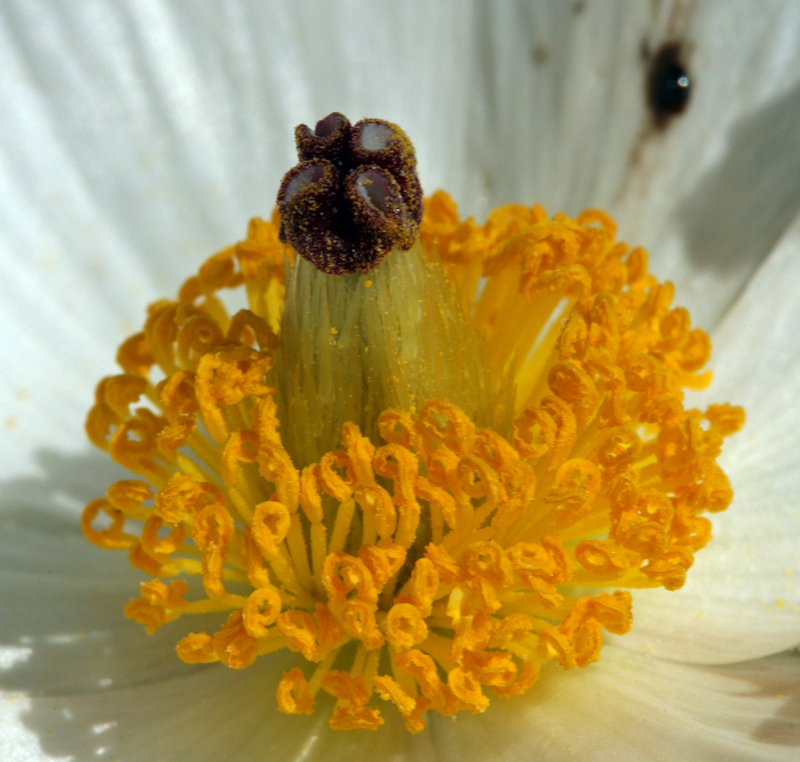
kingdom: Plantae
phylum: Tracheophyta
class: Magnoliopsida
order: Ranunculales
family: Papaveraceae
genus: Argemone
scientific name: Argemone munita
